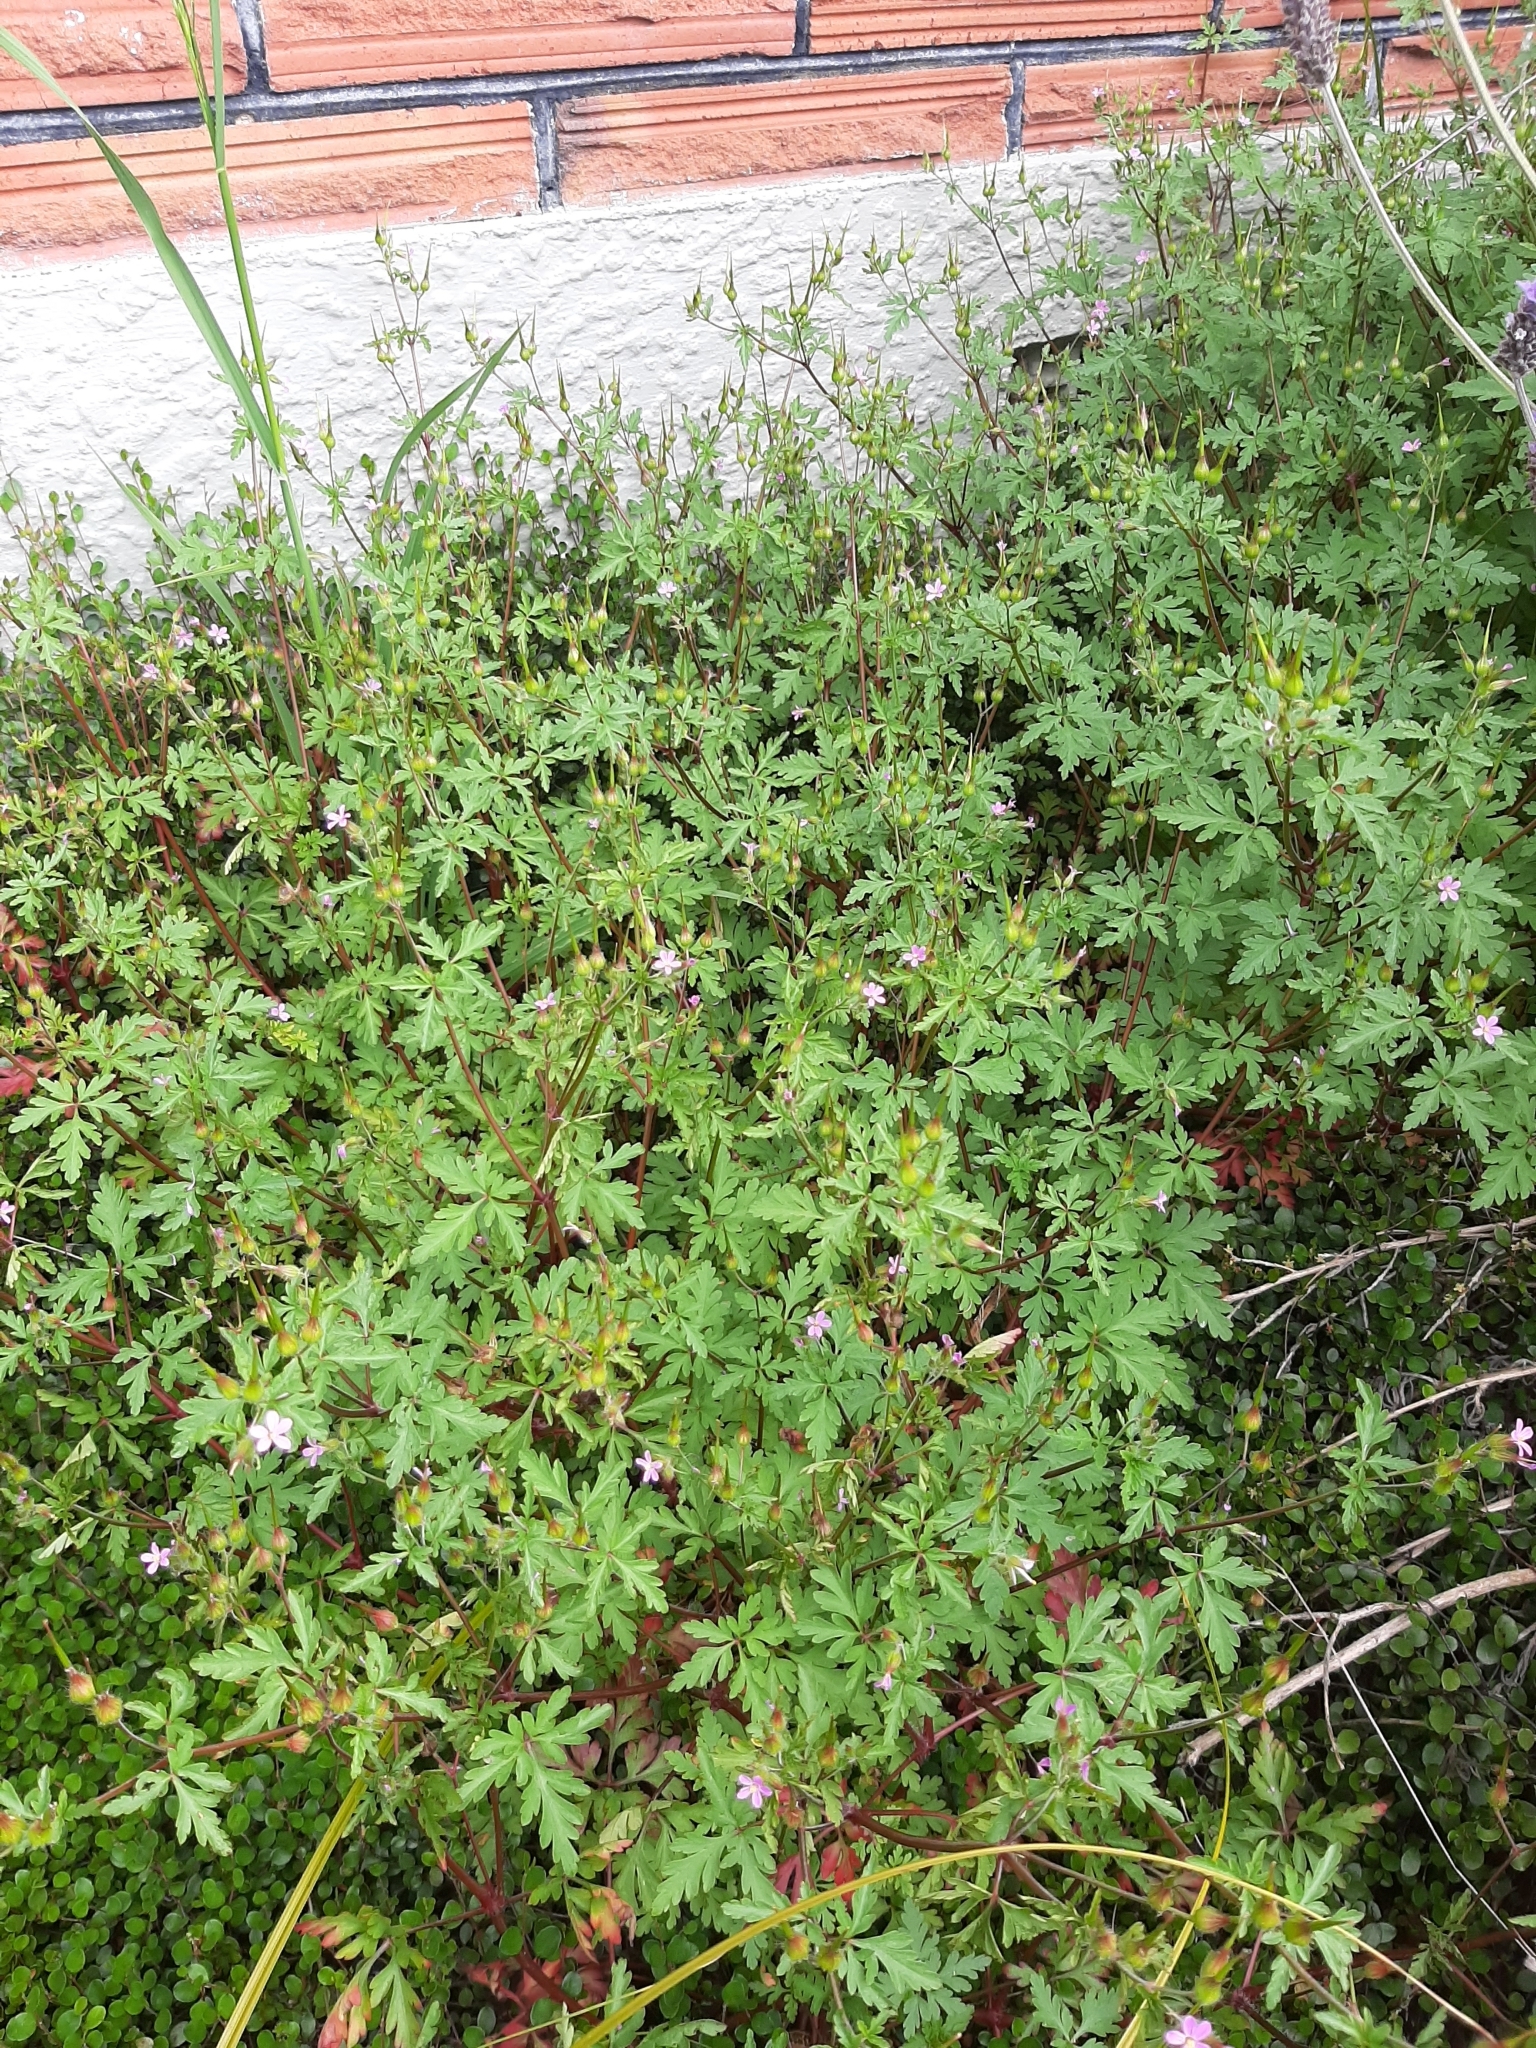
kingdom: Plantae
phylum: Tracheophyta
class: Magnoliopsida
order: Geraniales
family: Geraniaceae
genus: Geranium
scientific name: Geranium robertianum
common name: Herb-robert
